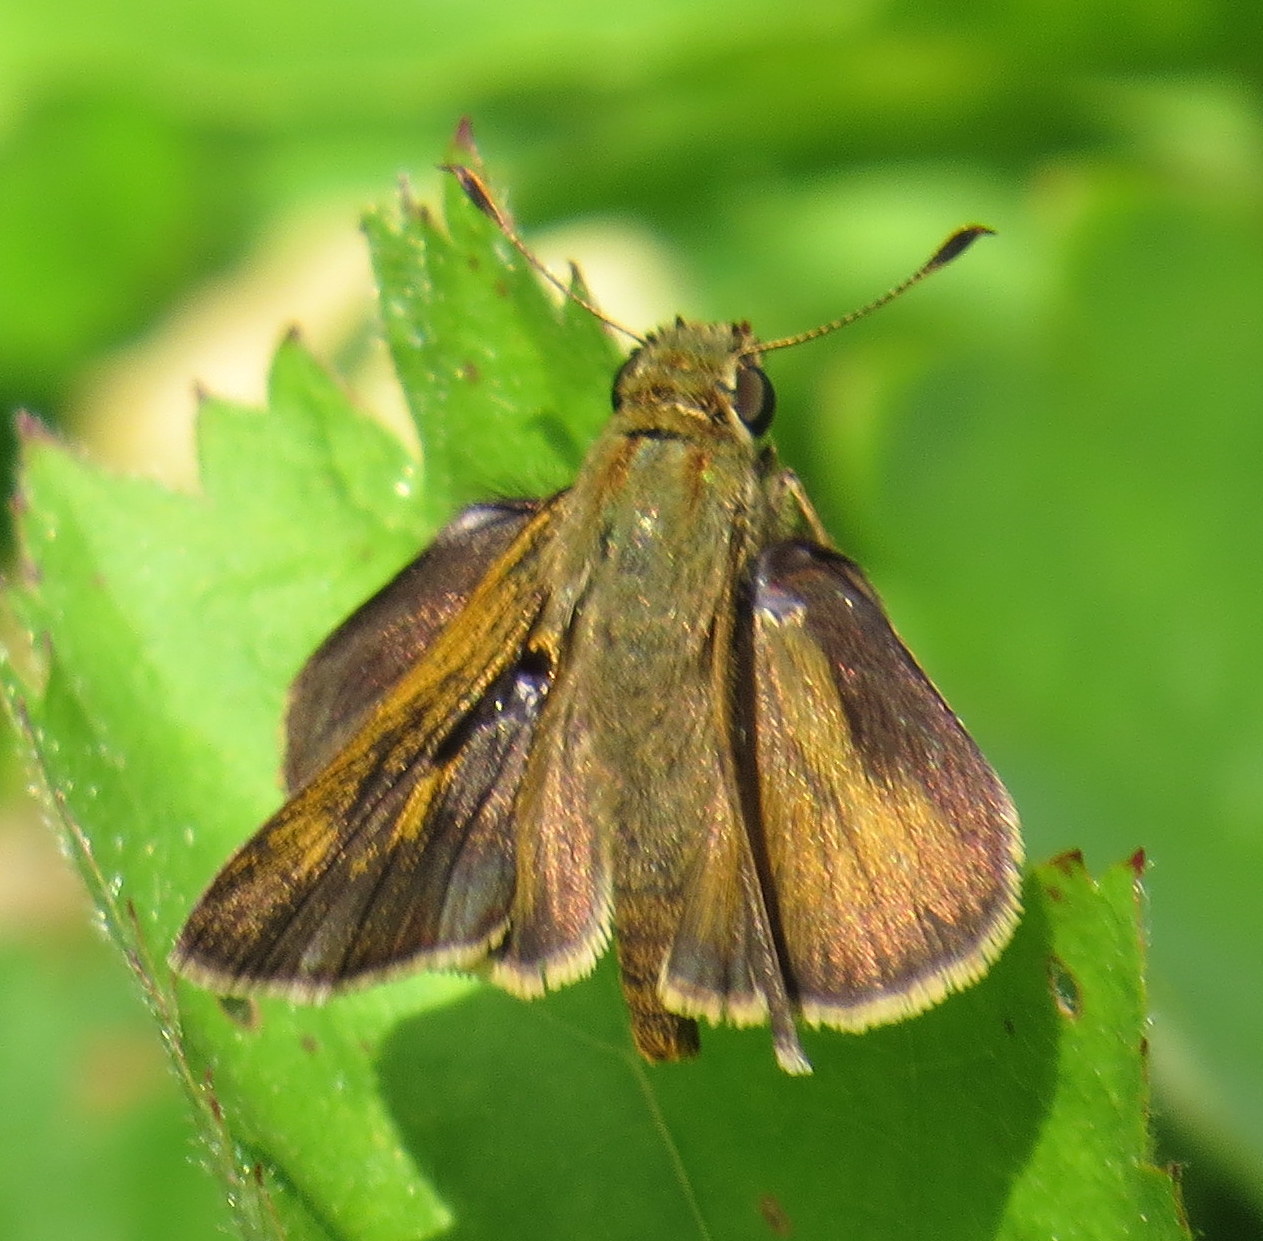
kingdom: Animalia
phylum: Arthropoda
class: Insecta
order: Lepidoptera
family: Hesperiidae
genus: Polites
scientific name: Polites egeremet
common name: Northern broken-dash
